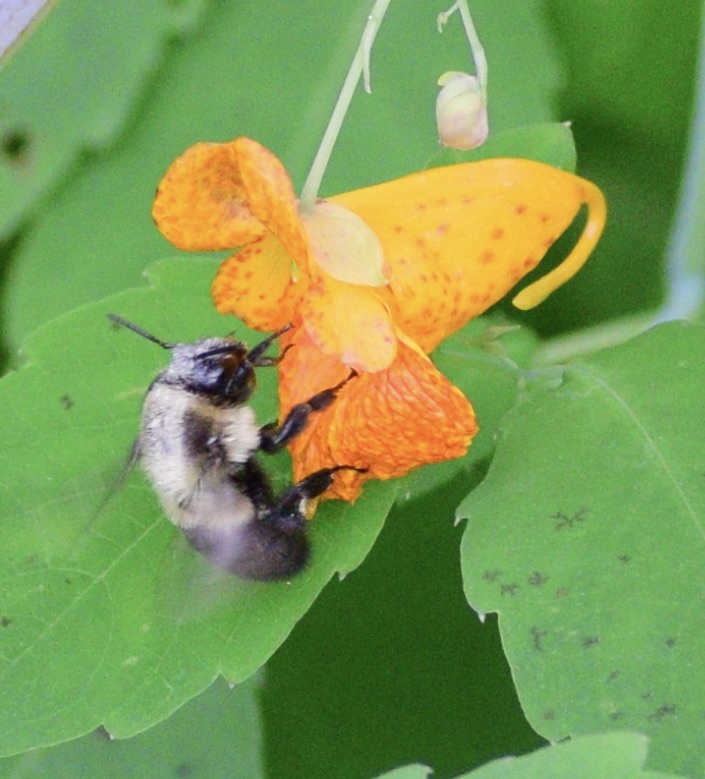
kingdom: Animalia
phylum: Arthropoda
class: Insecta
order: Hymenoptera
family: Apidae
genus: Bombus
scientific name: Bombus impatiens
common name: Common eastern bumble bee
